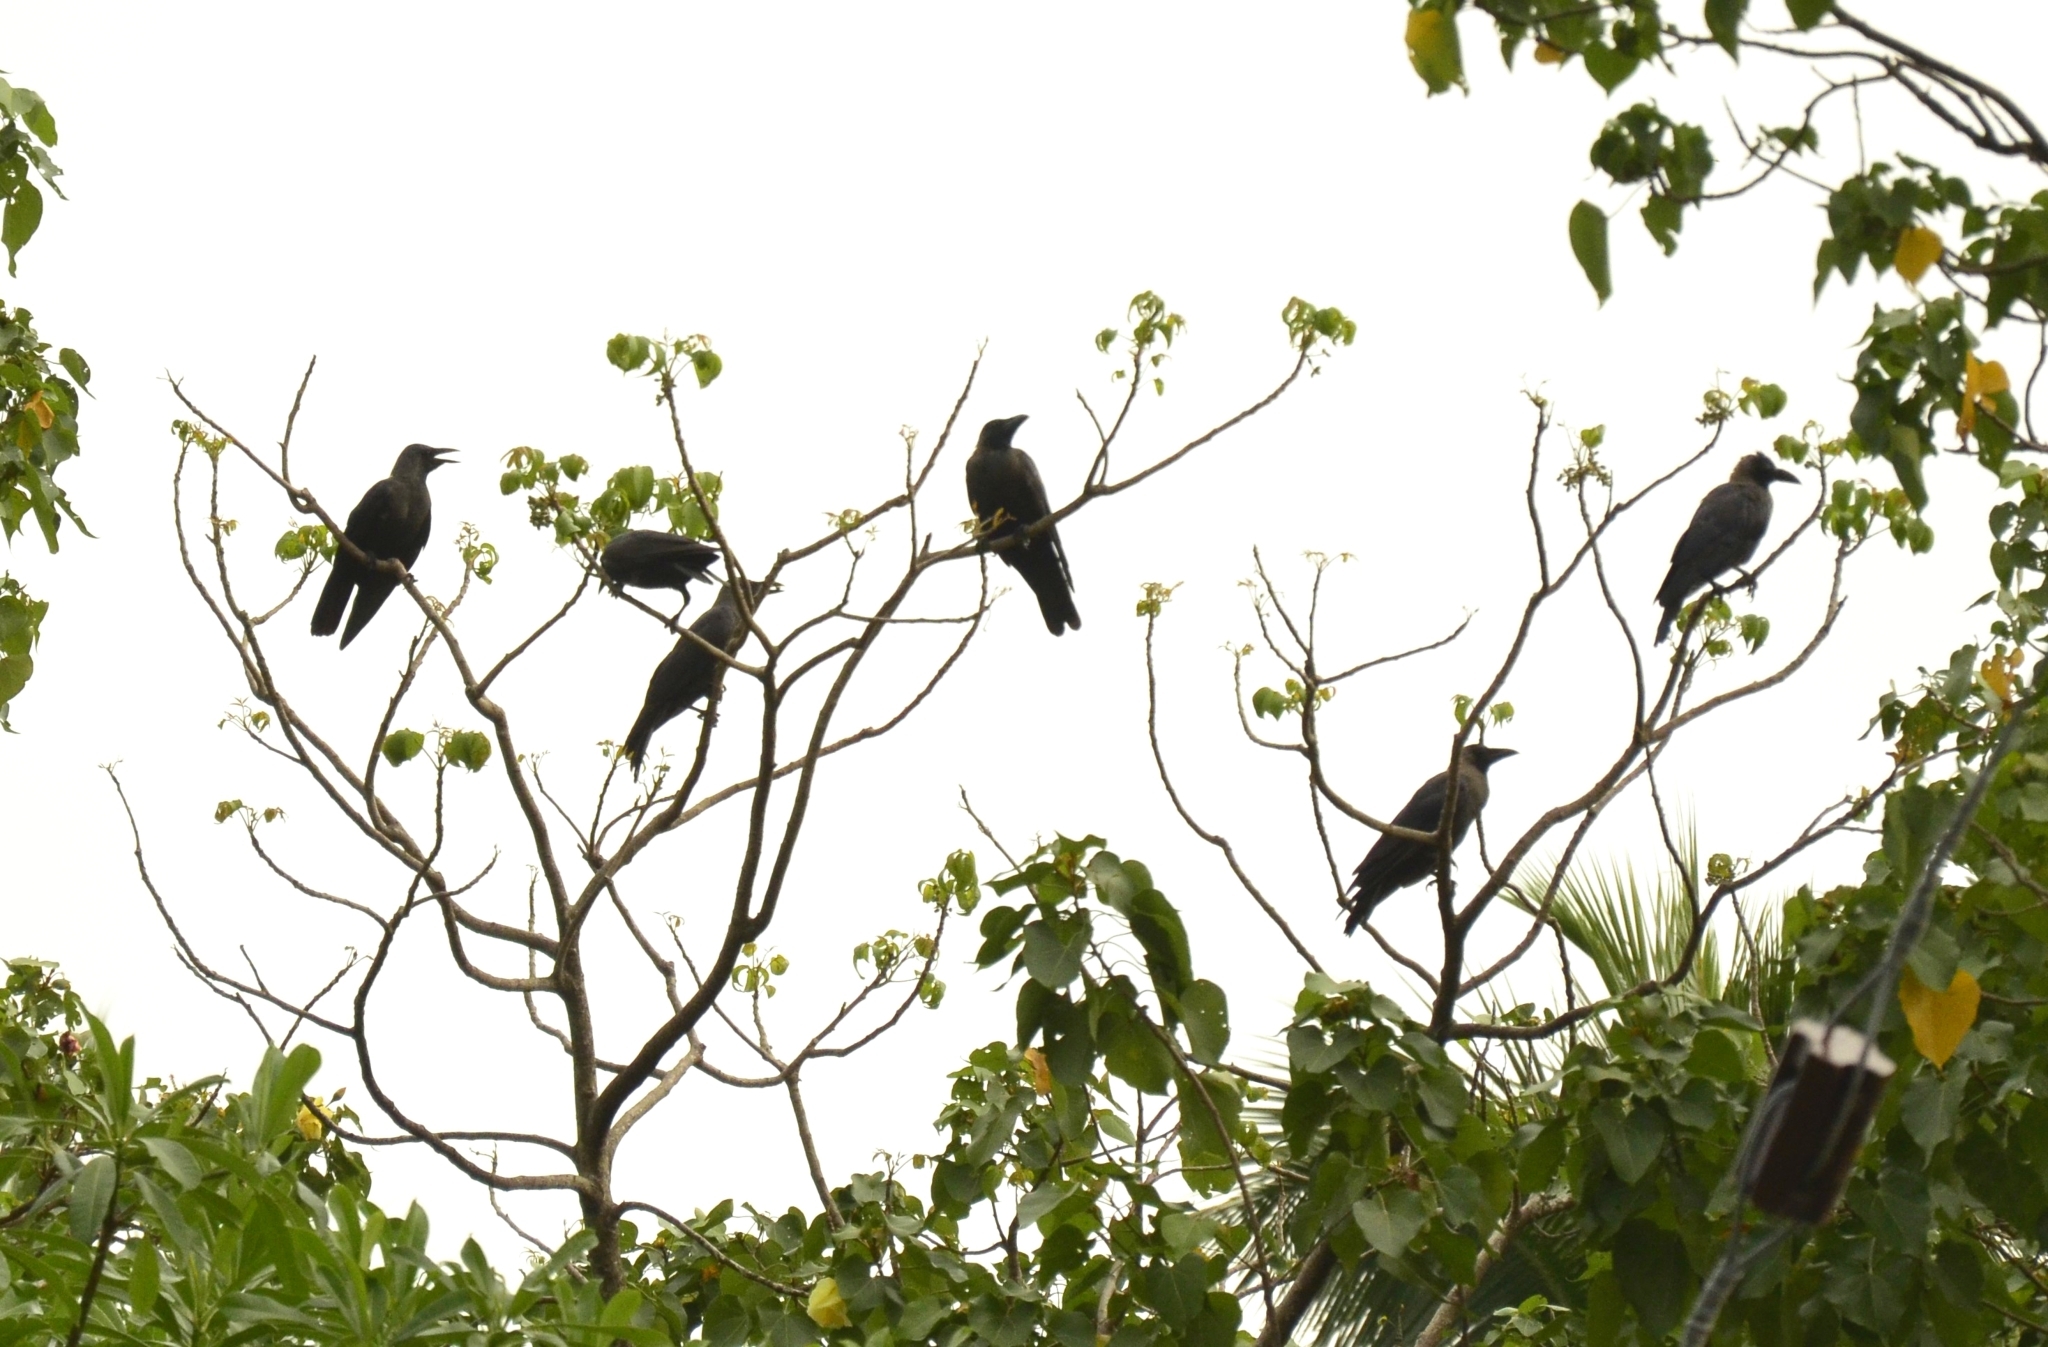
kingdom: Animalia
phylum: Chordata
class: Aves
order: Passeriformes
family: Corvidae
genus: Corvus
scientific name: Corvus splendens
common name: House crow
